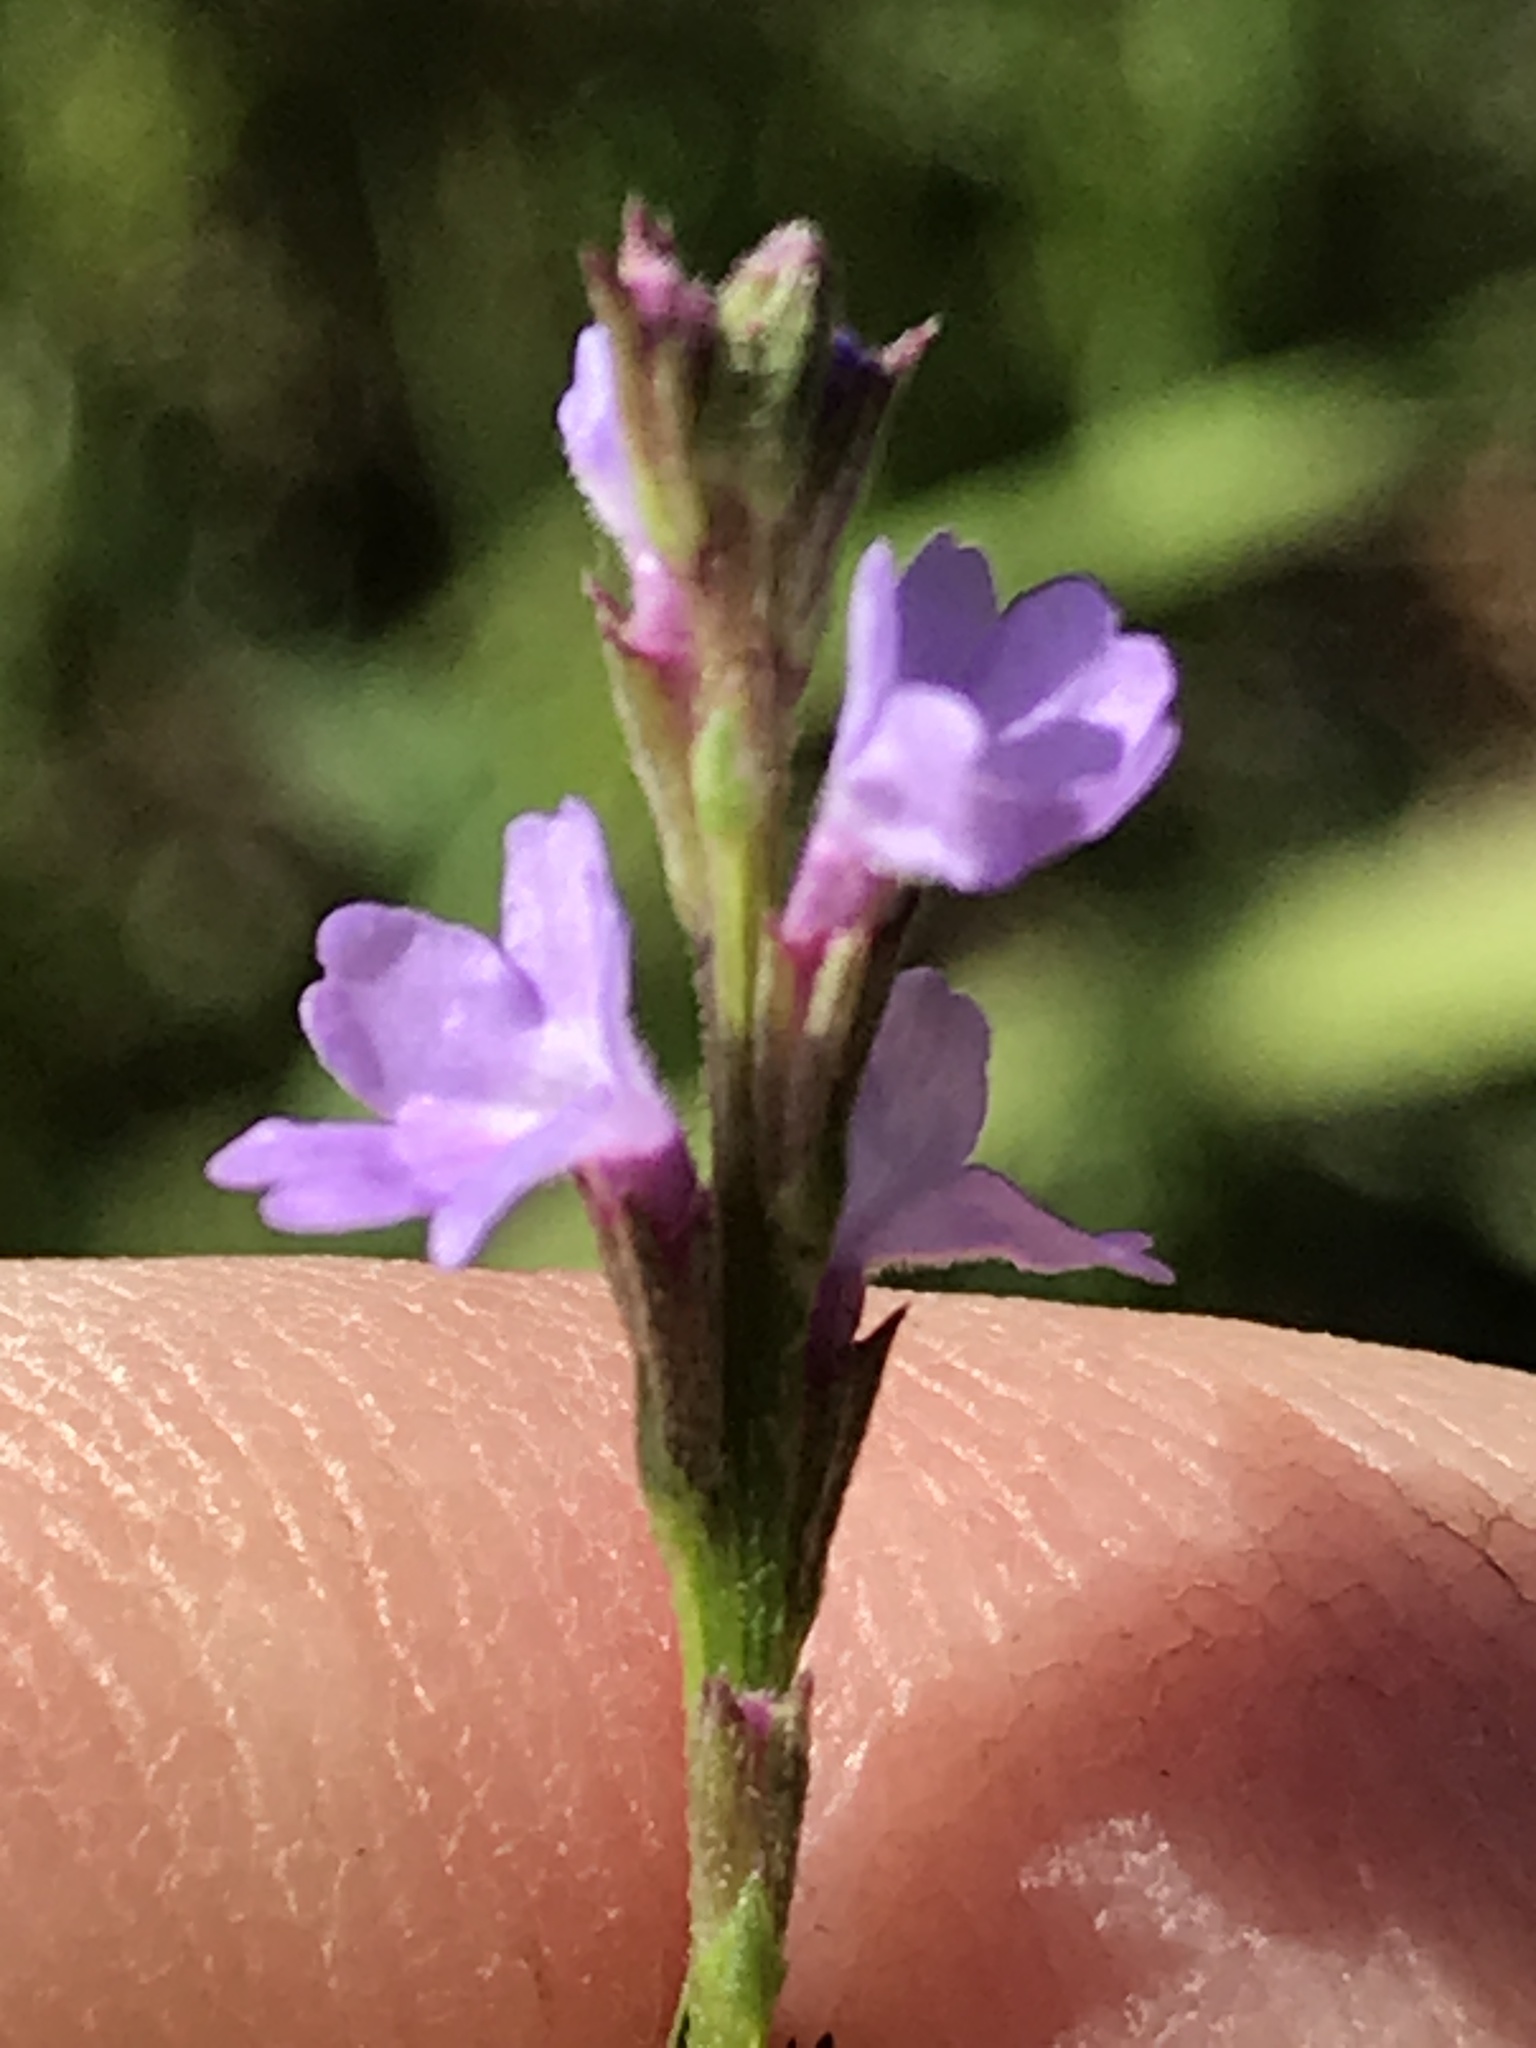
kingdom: Plantae
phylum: Tracheophyta
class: Magnoliopsida
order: Lamiales
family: Verbenaceae
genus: Verbena
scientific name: Verbena halei
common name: Texas vervain
